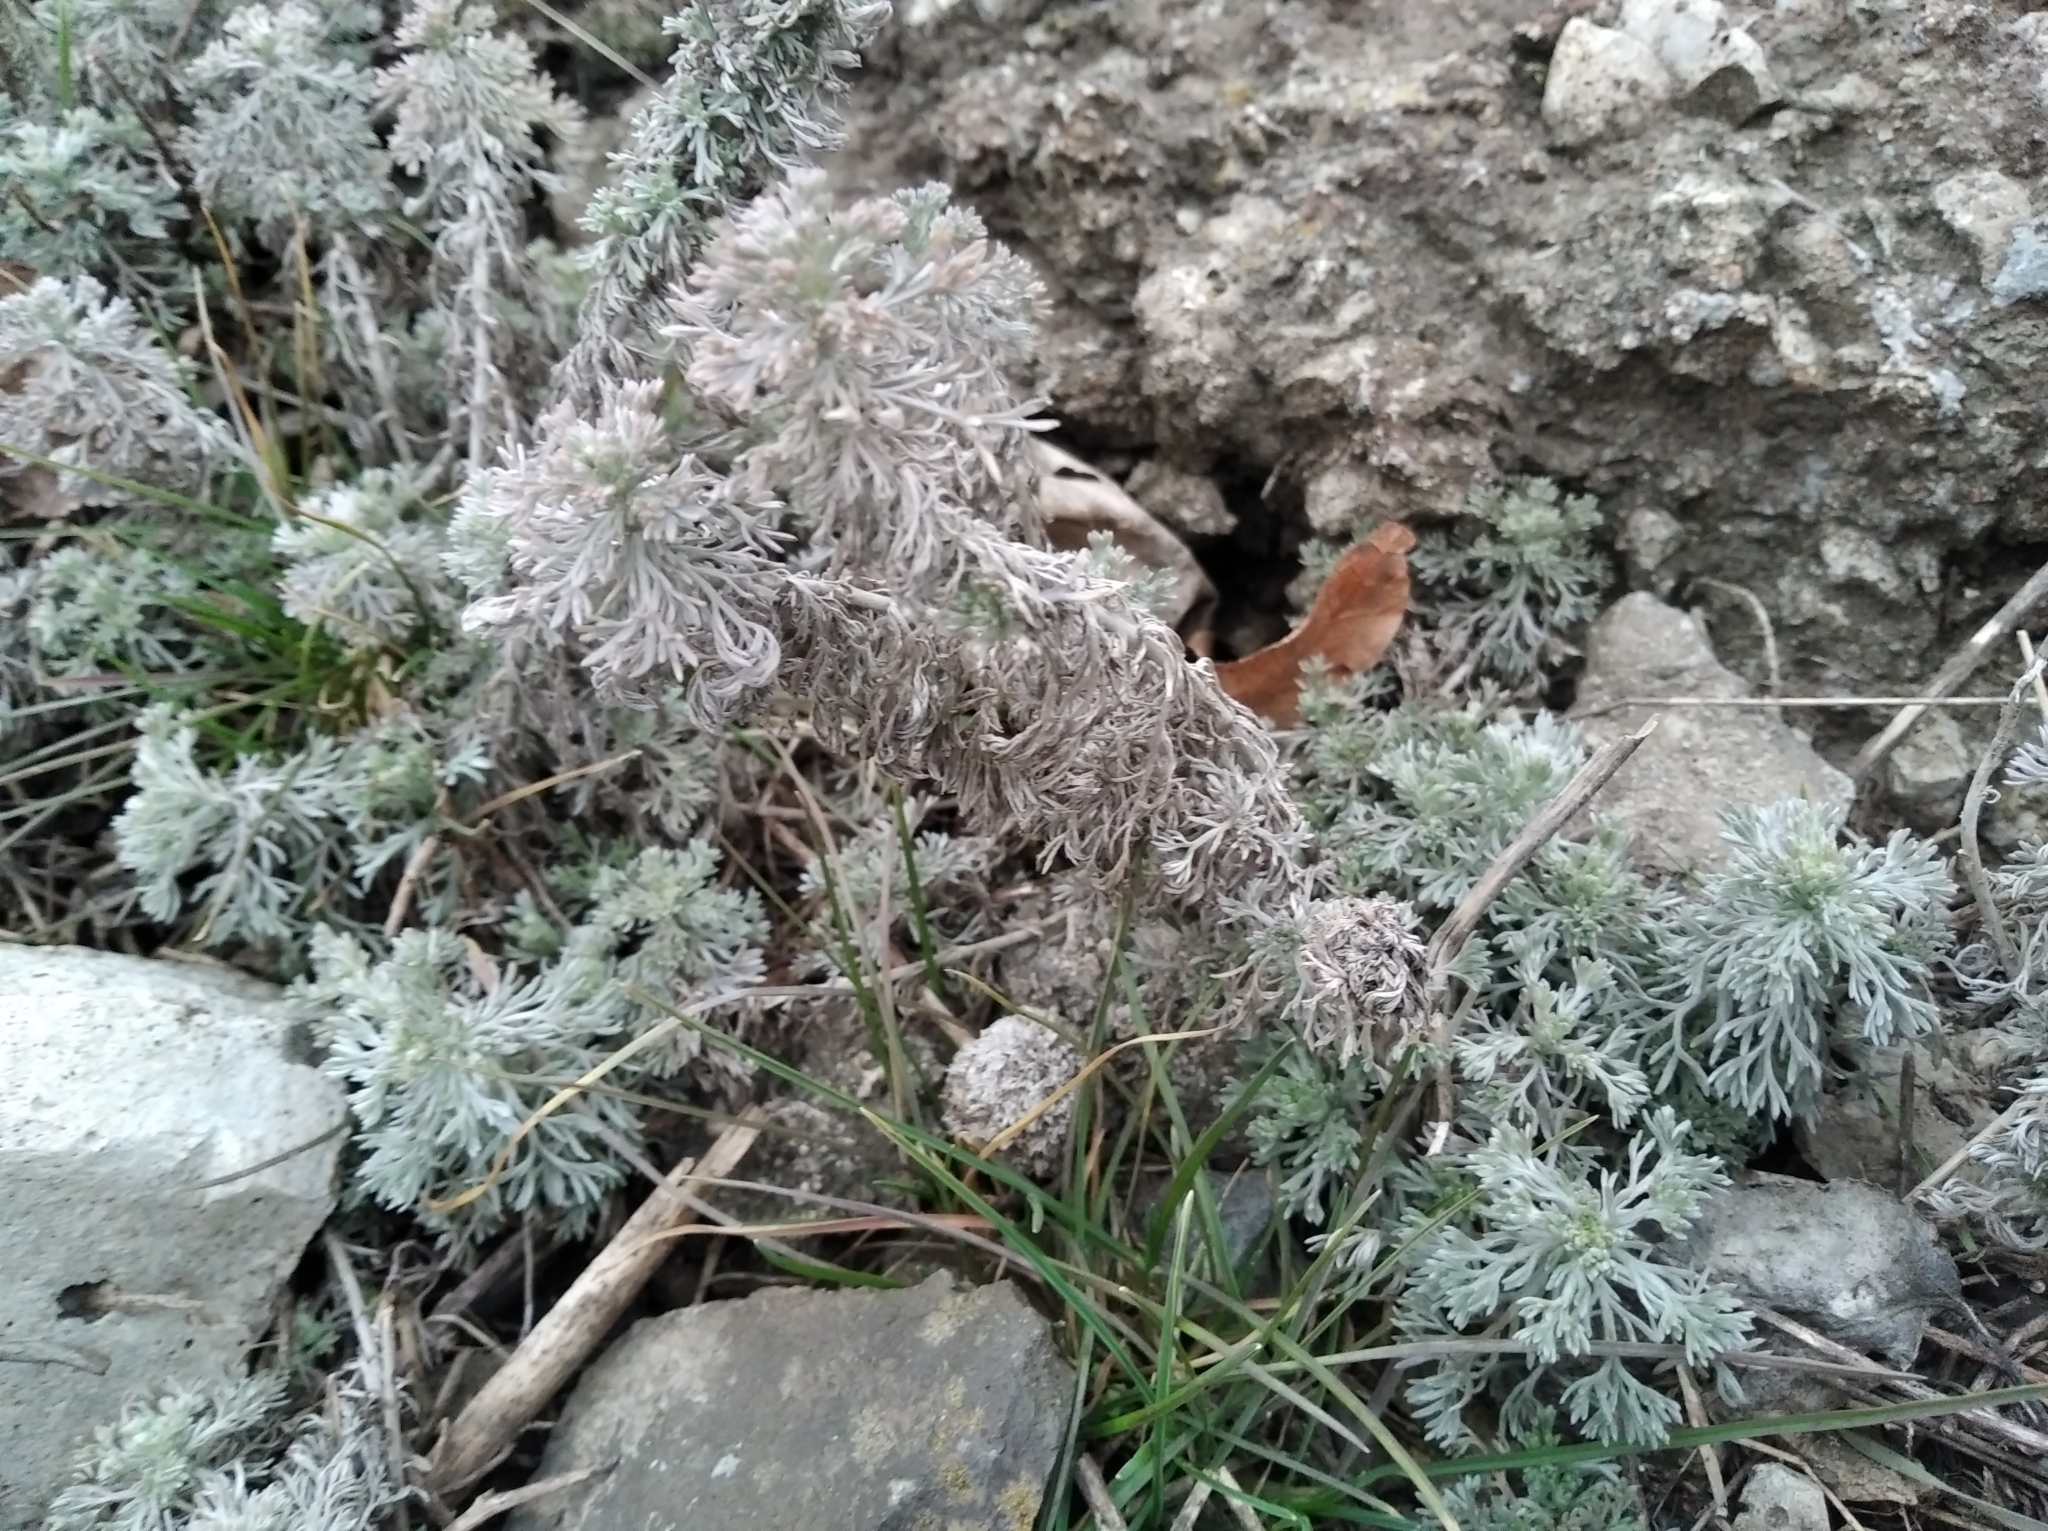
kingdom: Plantae
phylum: Tracheophyta
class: Magnoliopsida
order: Asterales
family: Asteraceae
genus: Artemisia
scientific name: Artemisia austriaca
